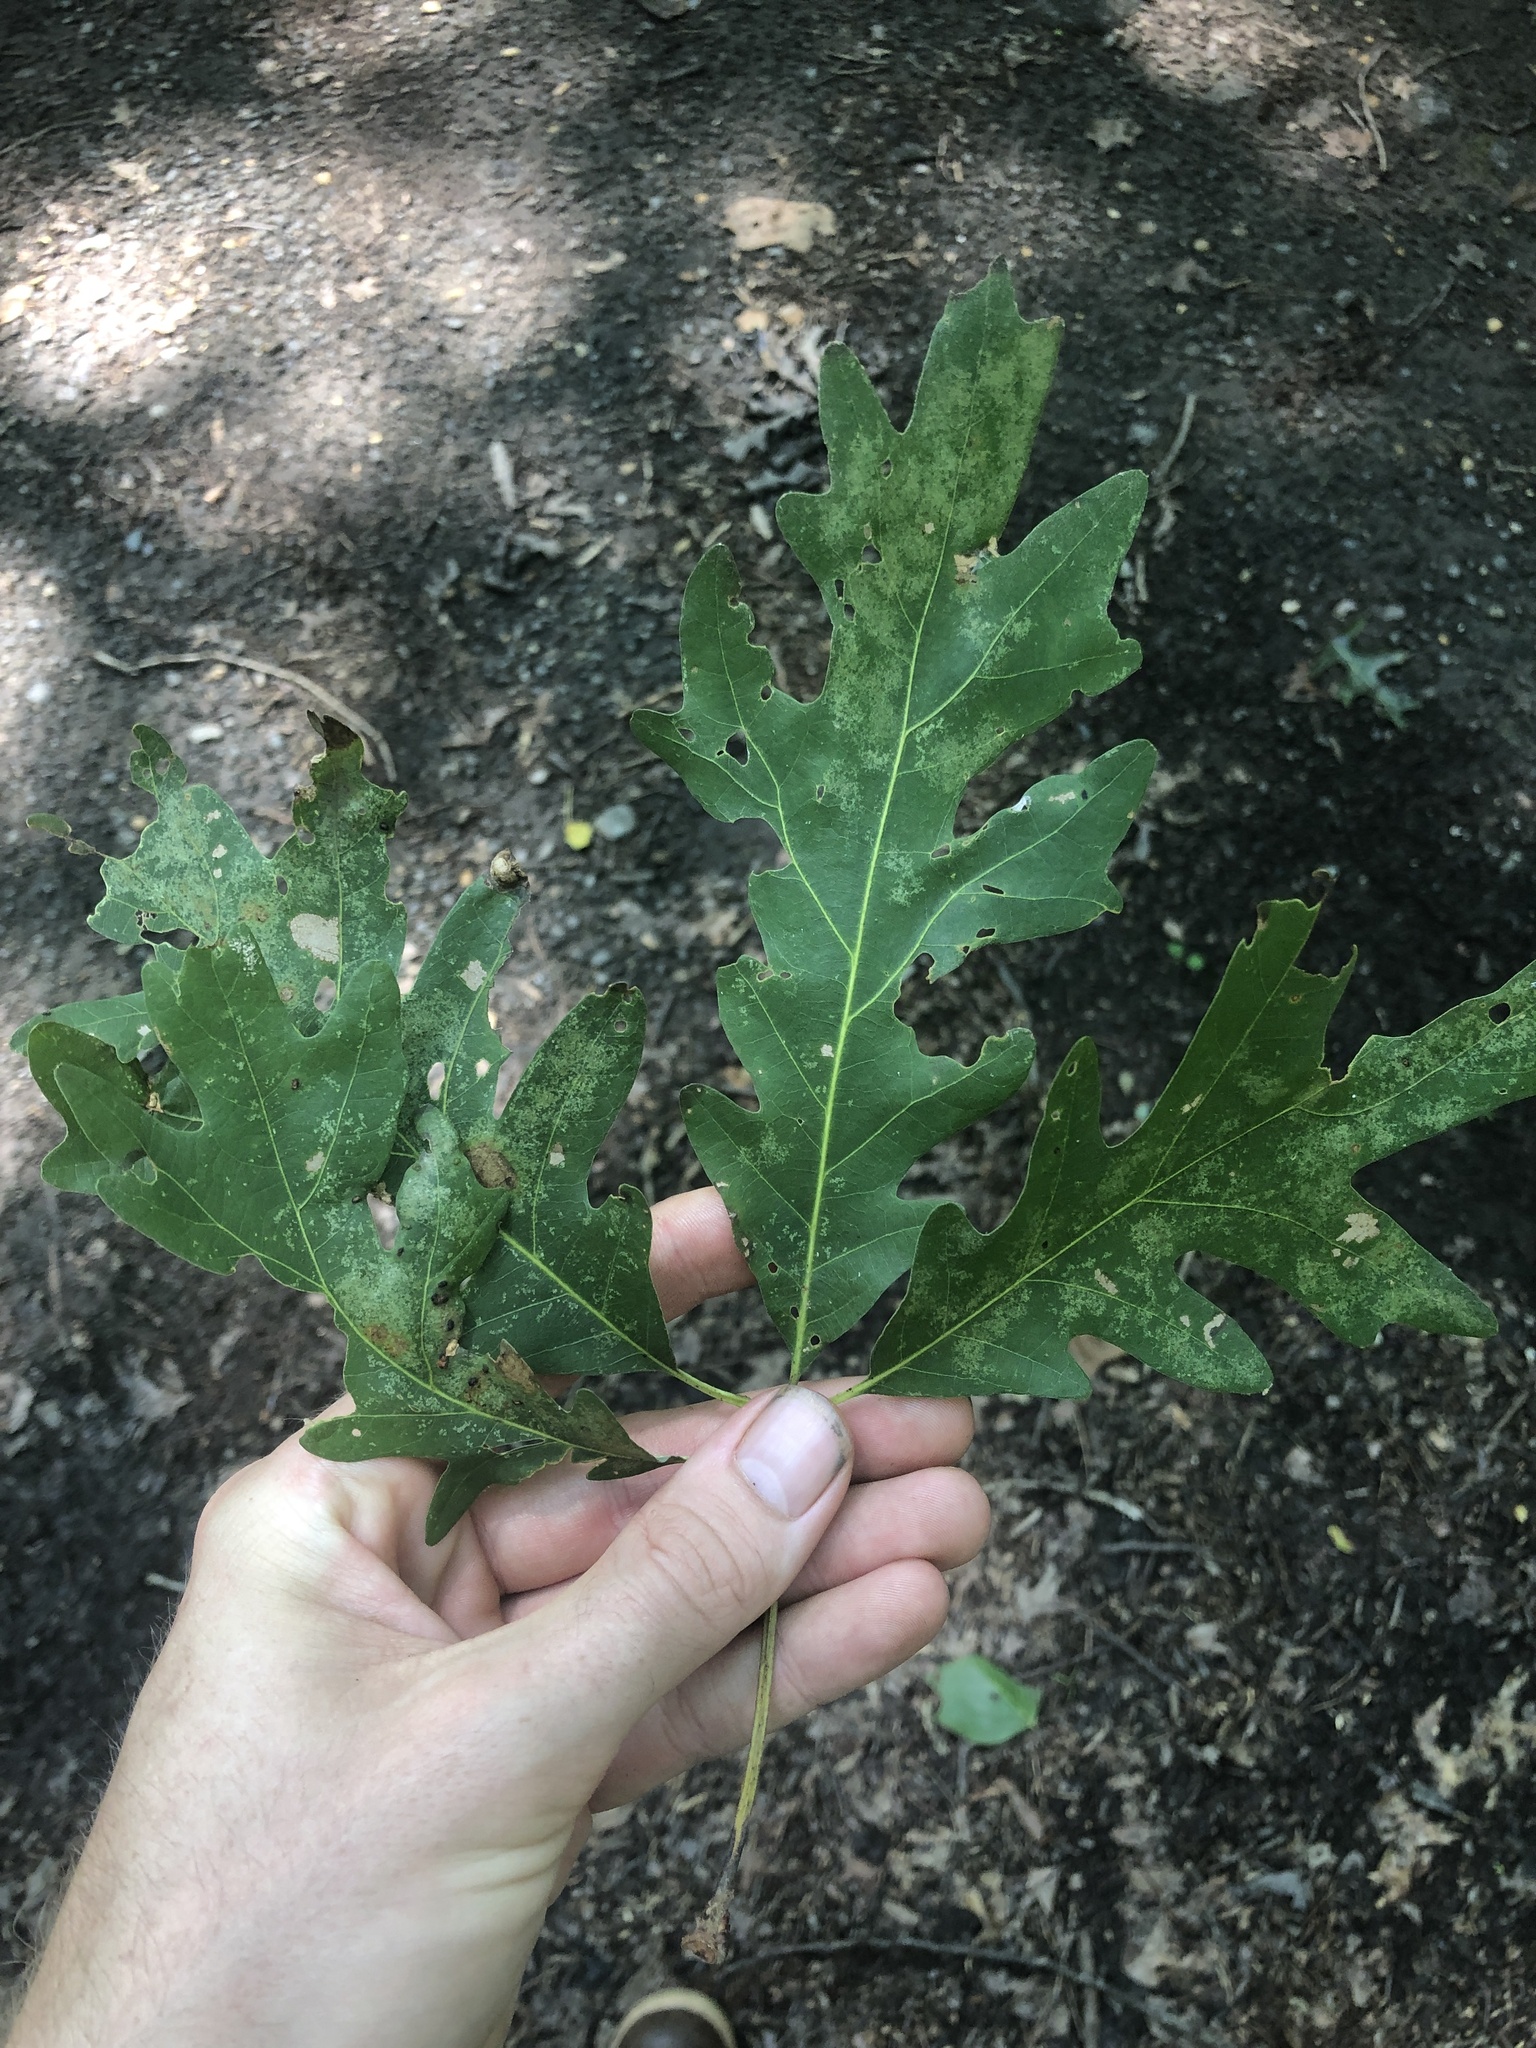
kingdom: Plantae
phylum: Tracheophyta
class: Magnoliopsida
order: Fagales
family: Fagaceae
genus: Quercus
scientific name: Quercus alba
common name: White oak
